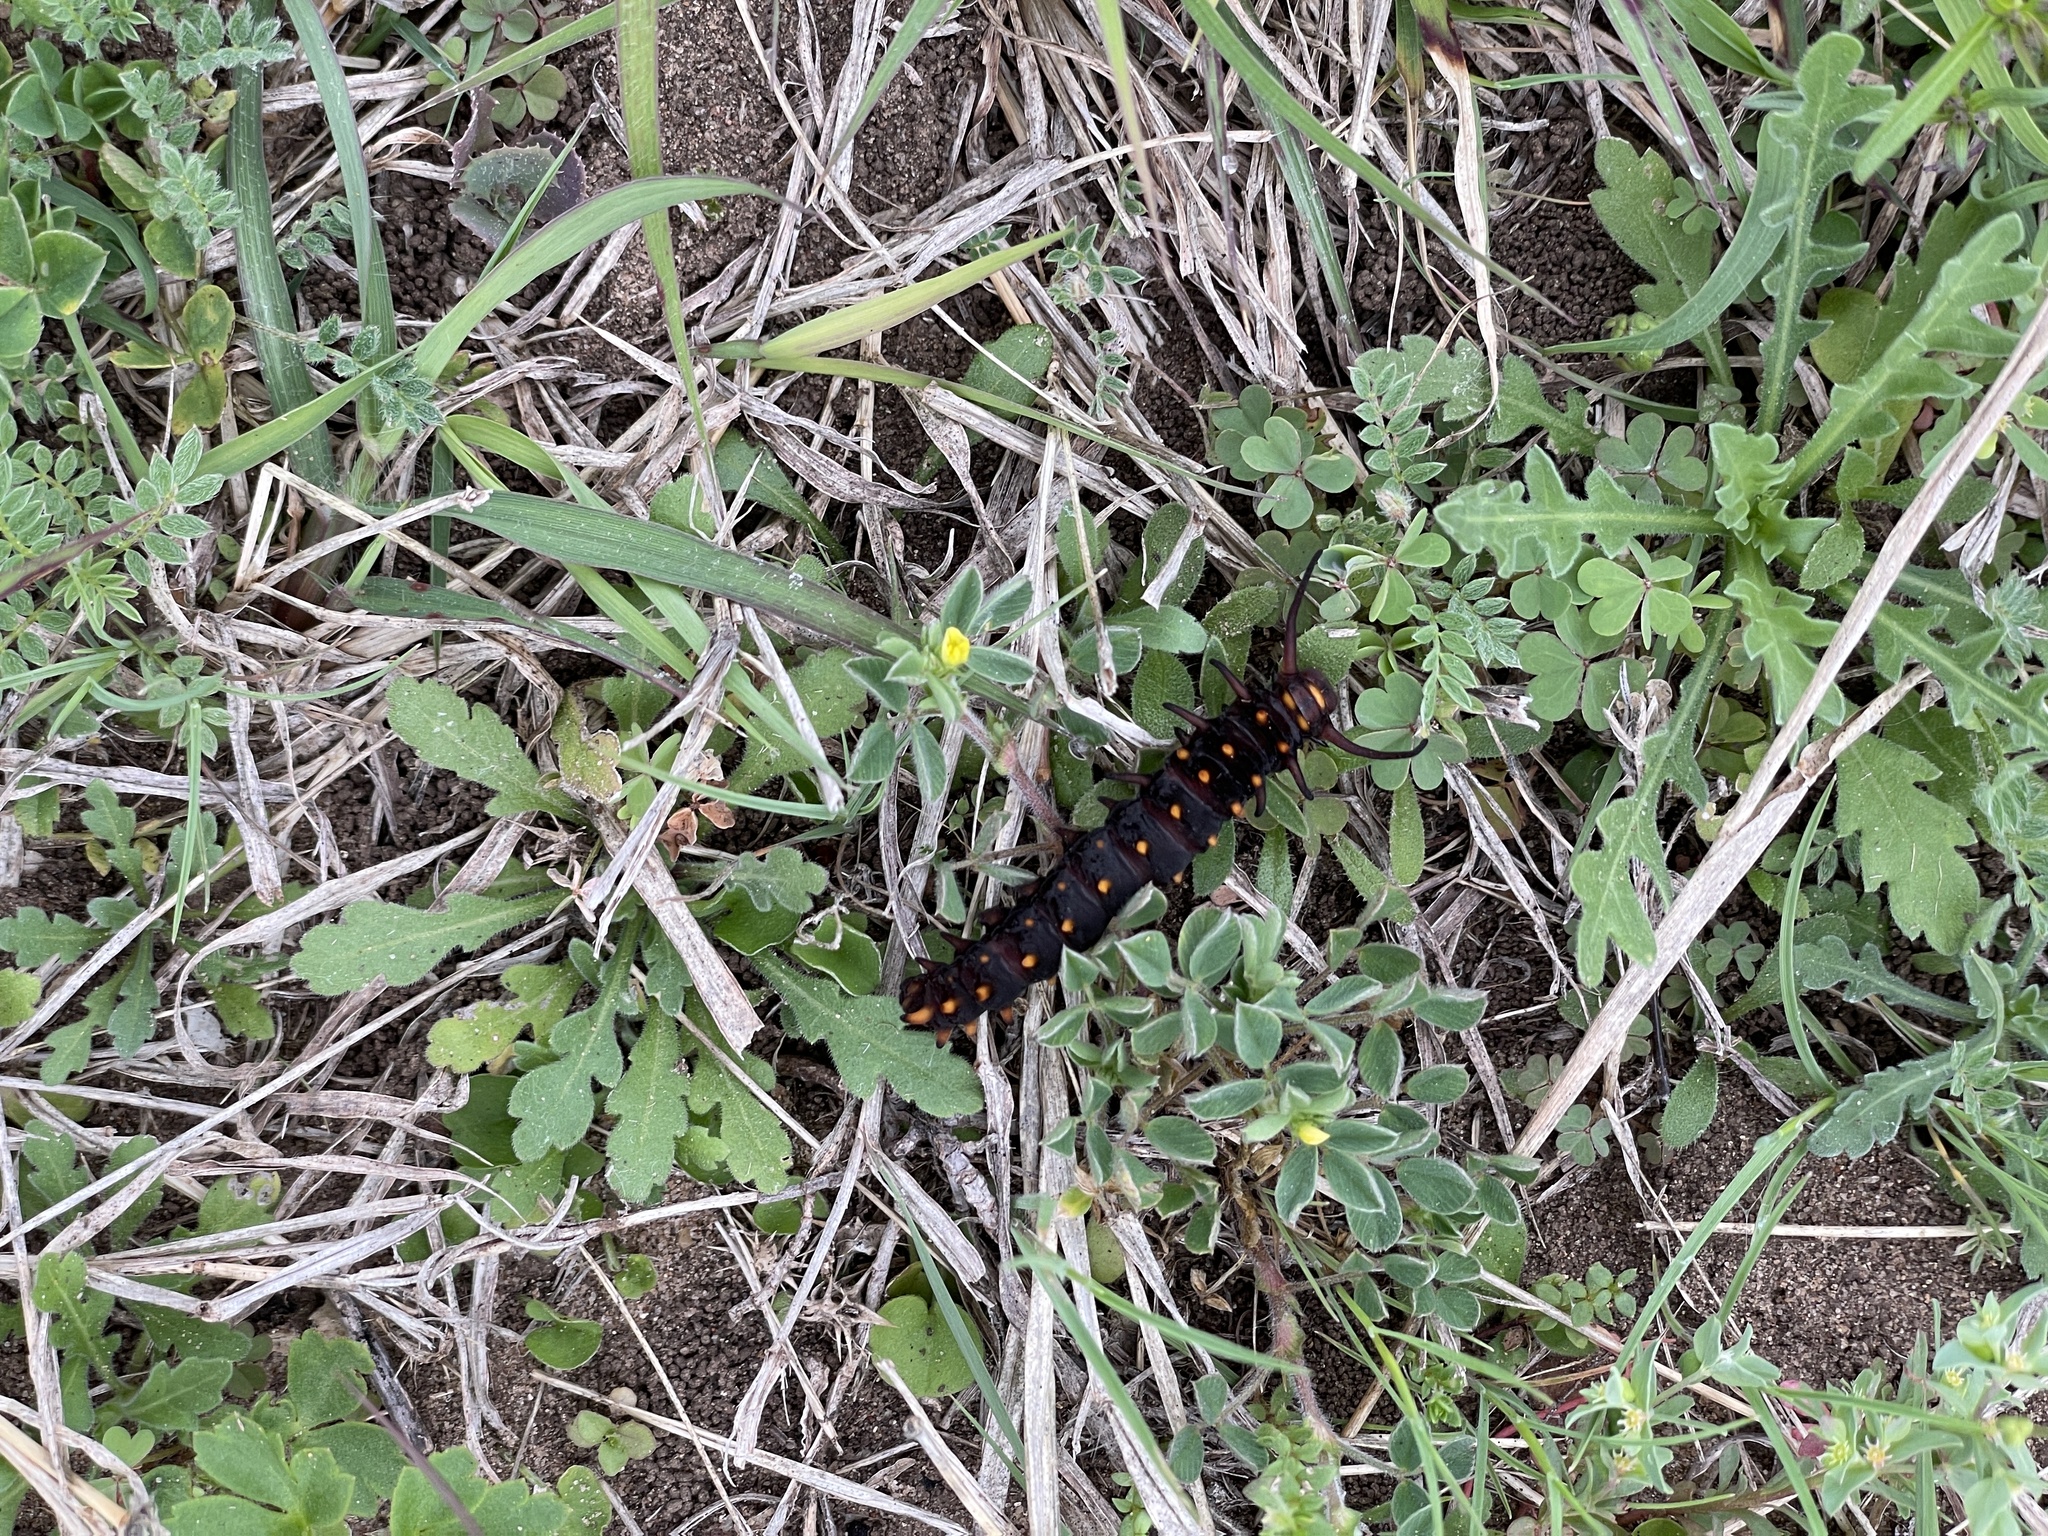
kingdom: Animalia
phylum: Arthropoda
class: Insecta
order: Lepidoptera
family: Papilionidae
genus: Battus
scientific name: Battus philenor
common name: Pipevine swallowtail
